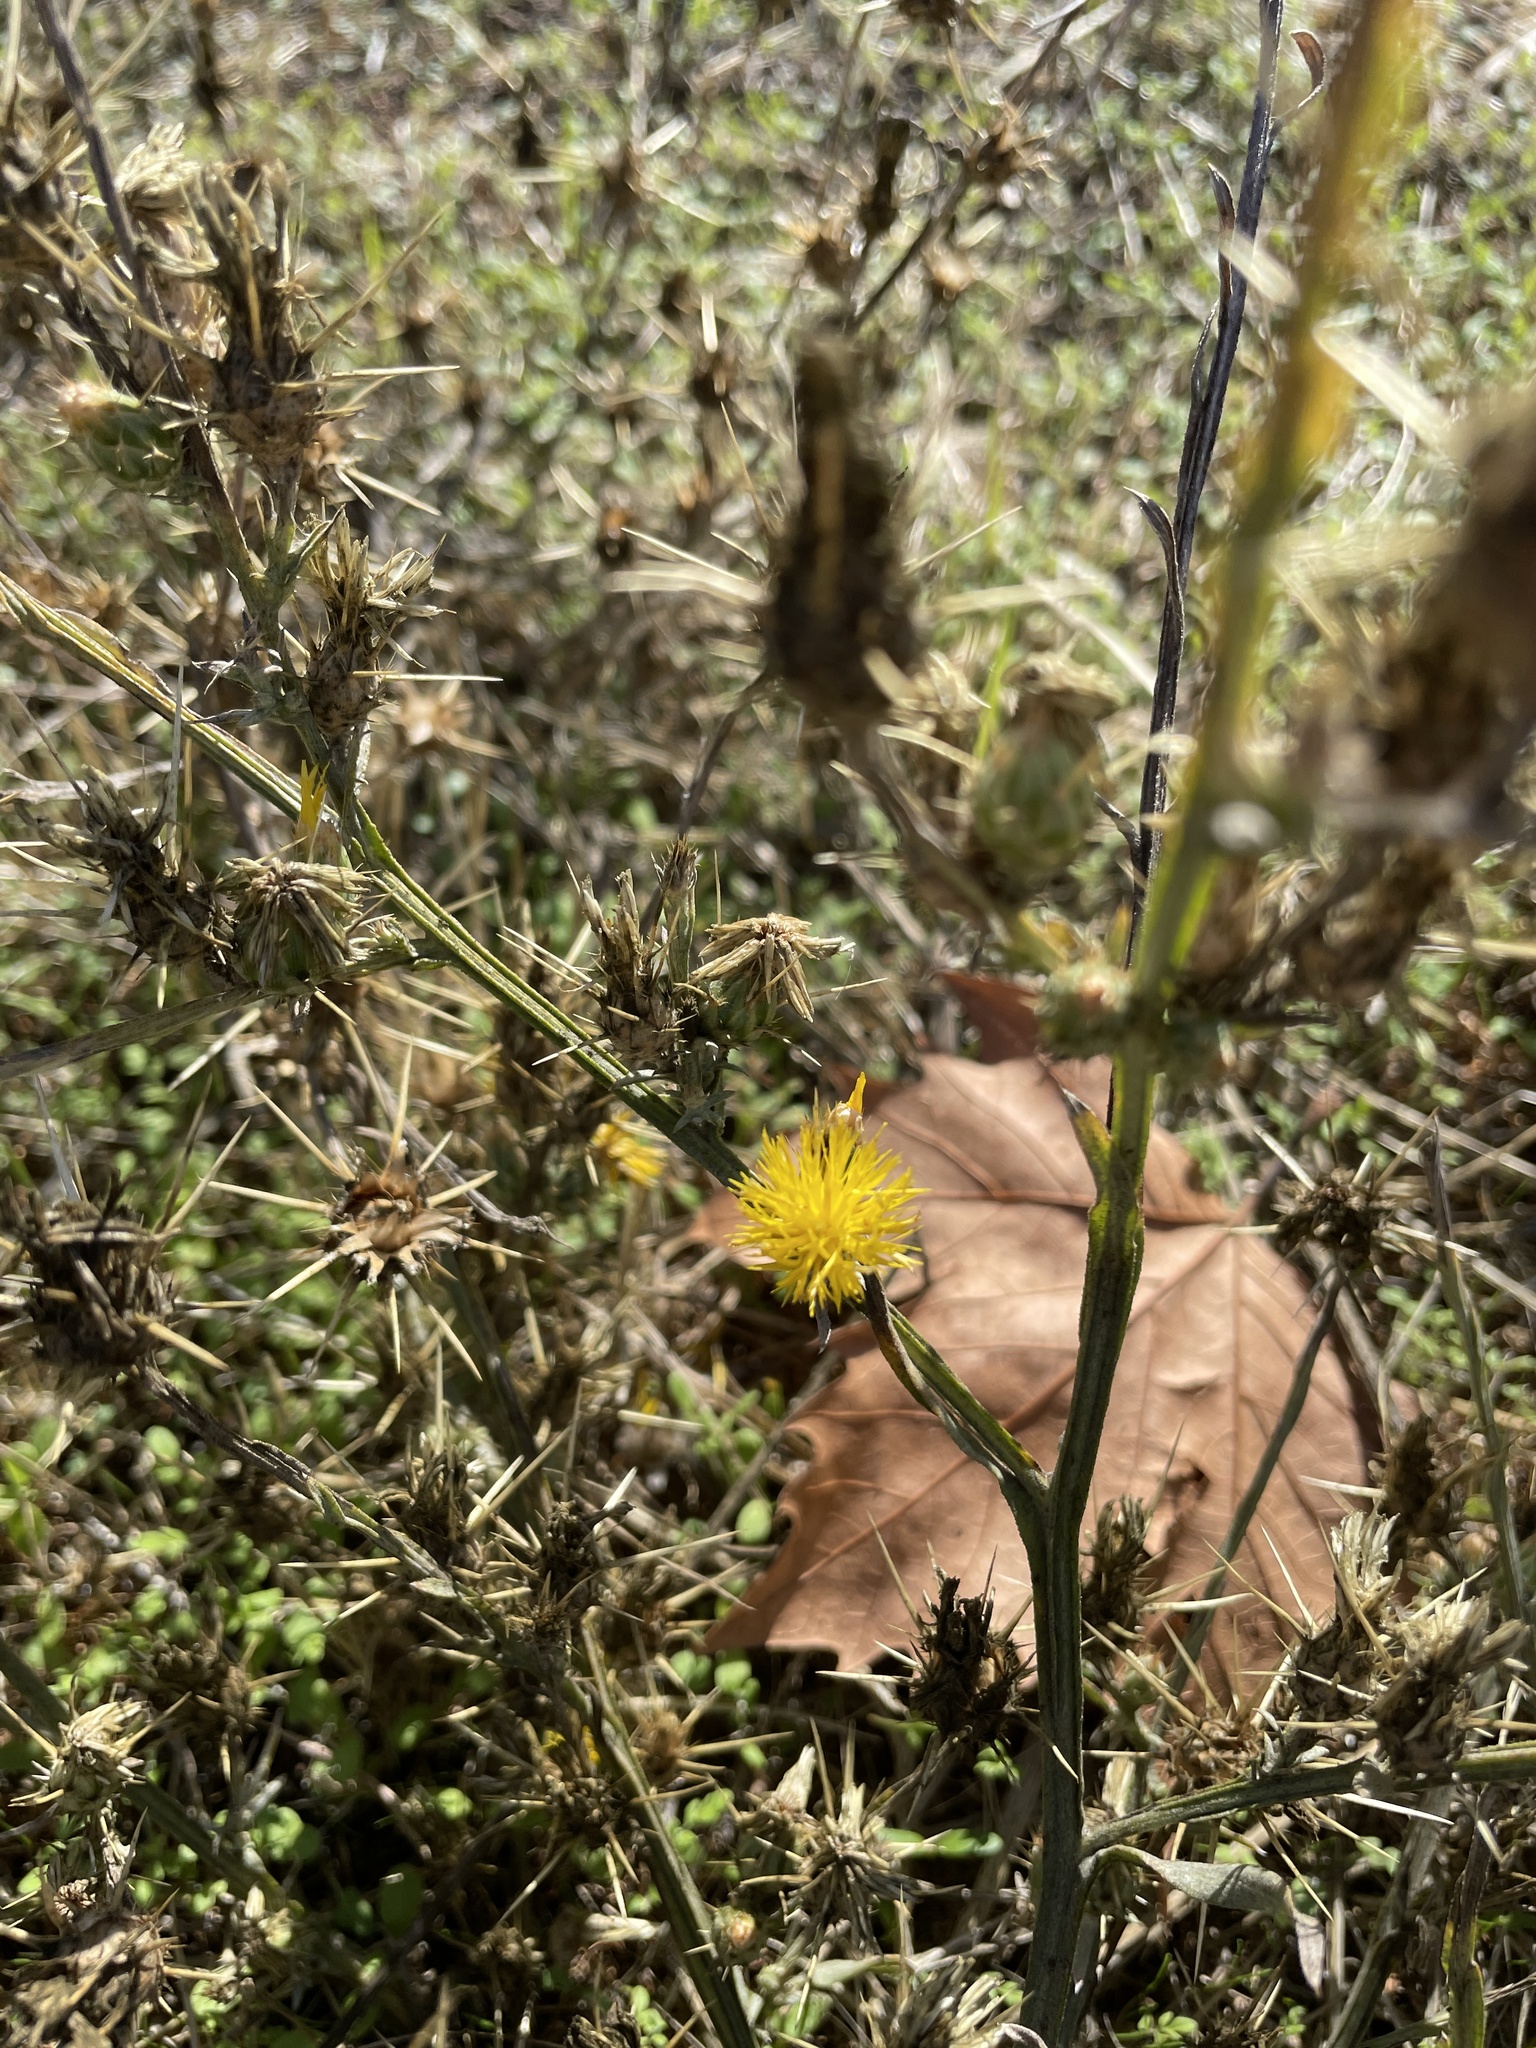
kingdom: Plantae
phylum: Tracheophyta
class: Magnoliopsida
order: Asterales
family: Asteraceae
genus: Centaurea
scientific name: Centaurea solstitialis
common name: Yellow star-thistle
